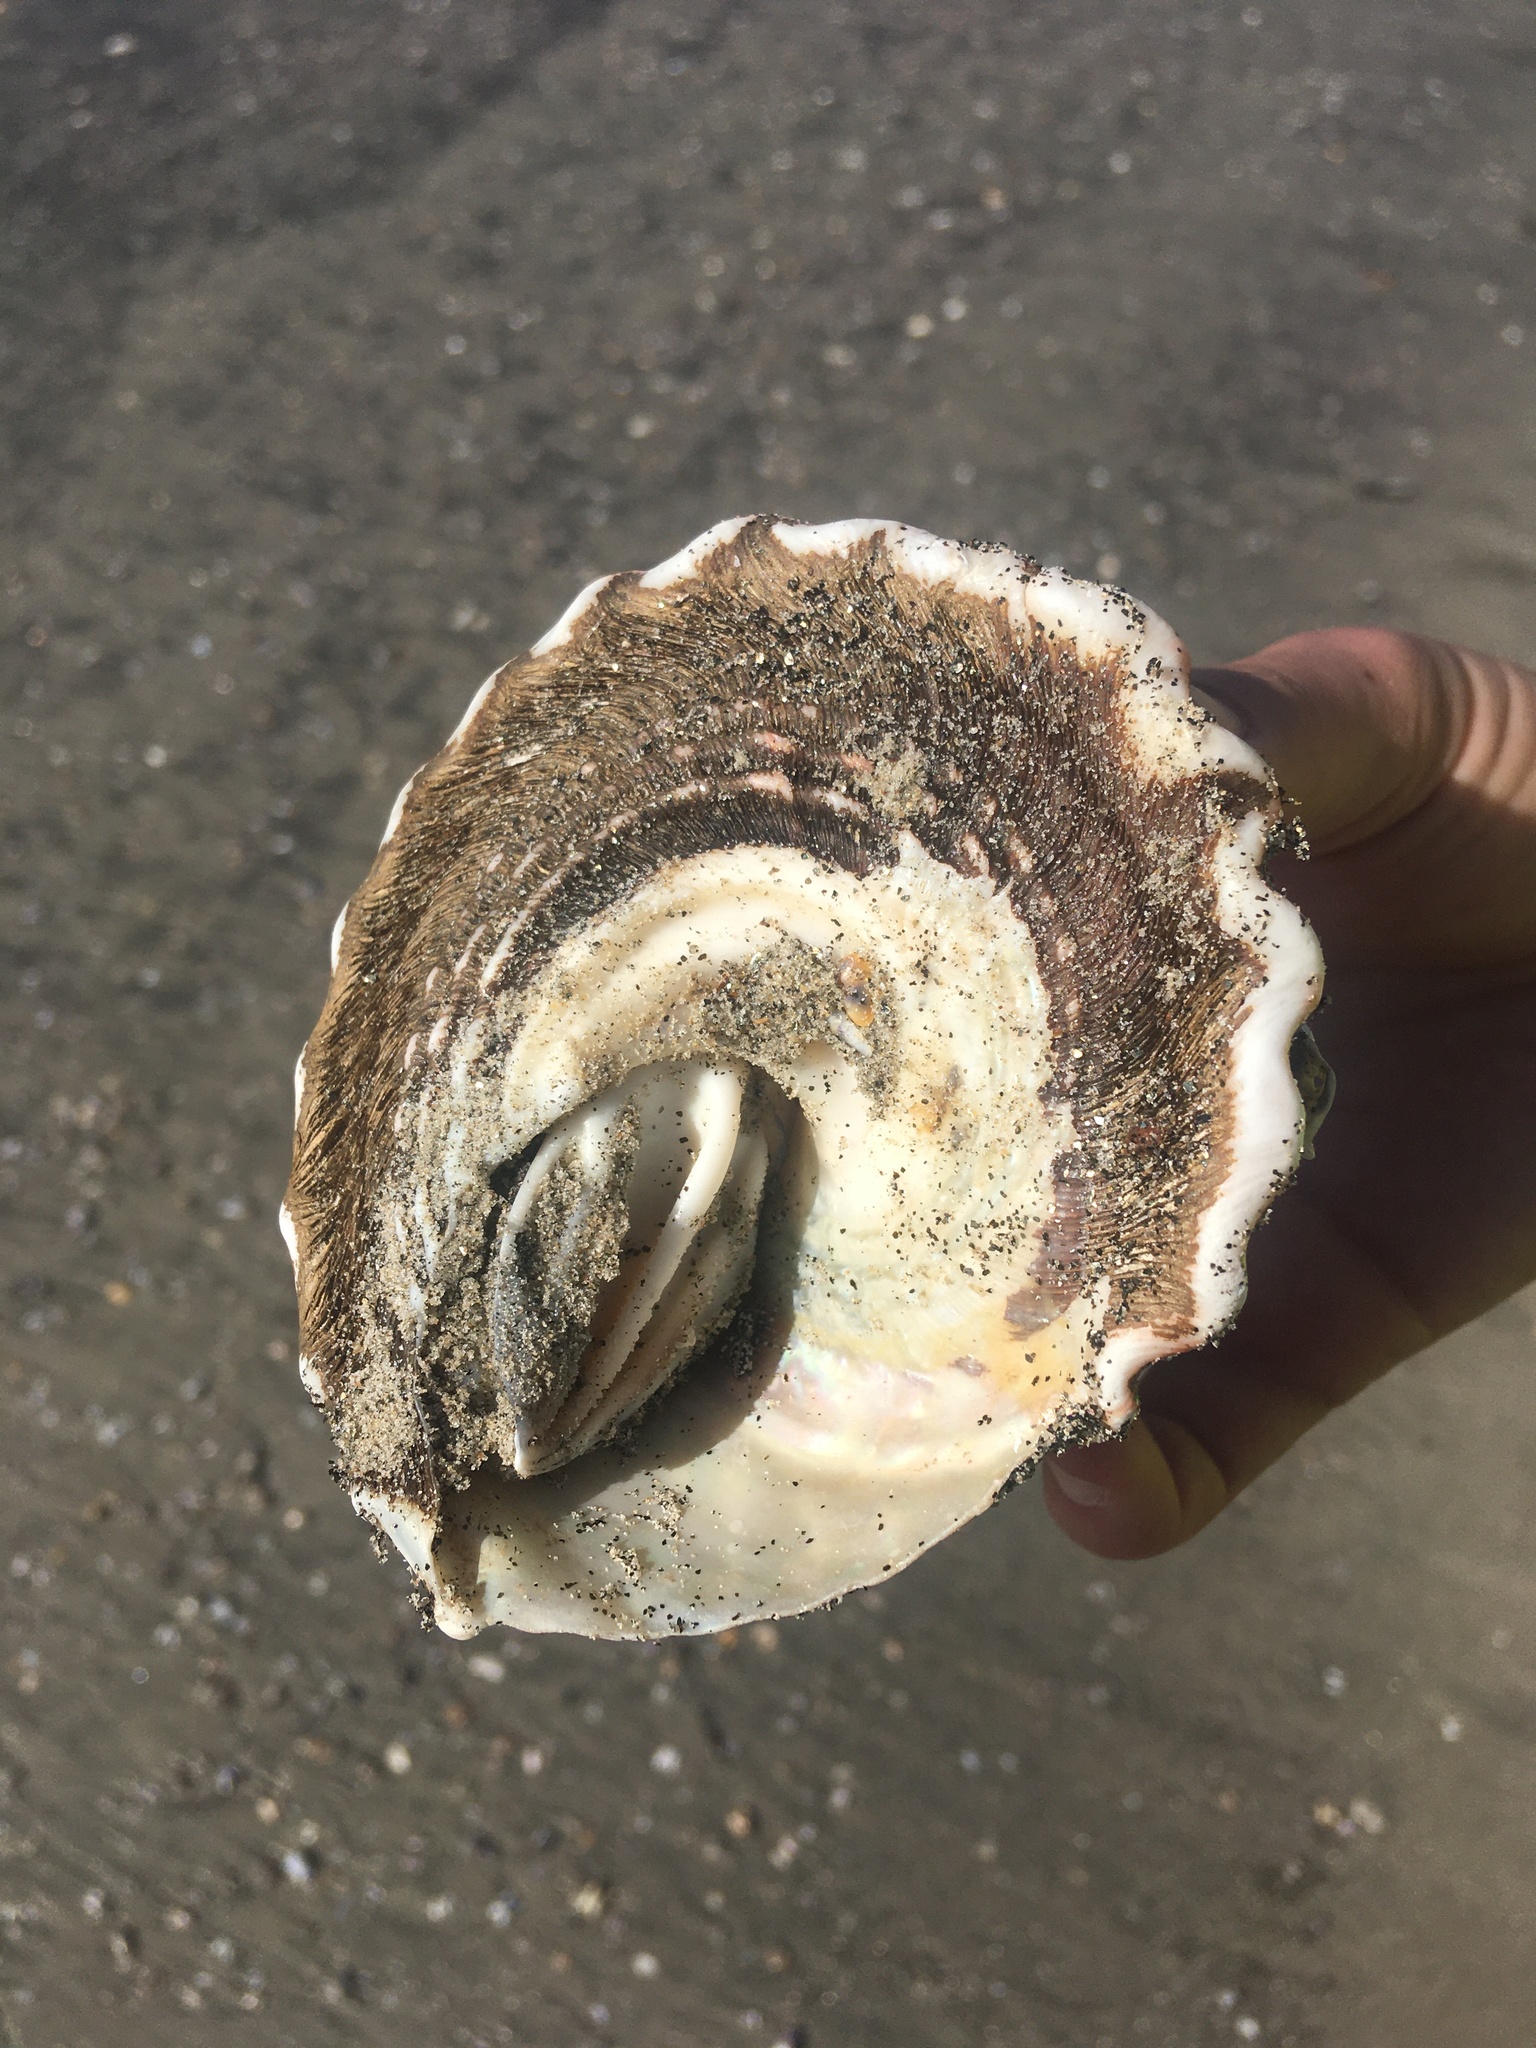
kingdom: Animalia
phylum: Mollusca
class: Gastropoda
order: Trochida
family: Turbinidae
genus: Megastraea
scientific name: Megastraea undosa
